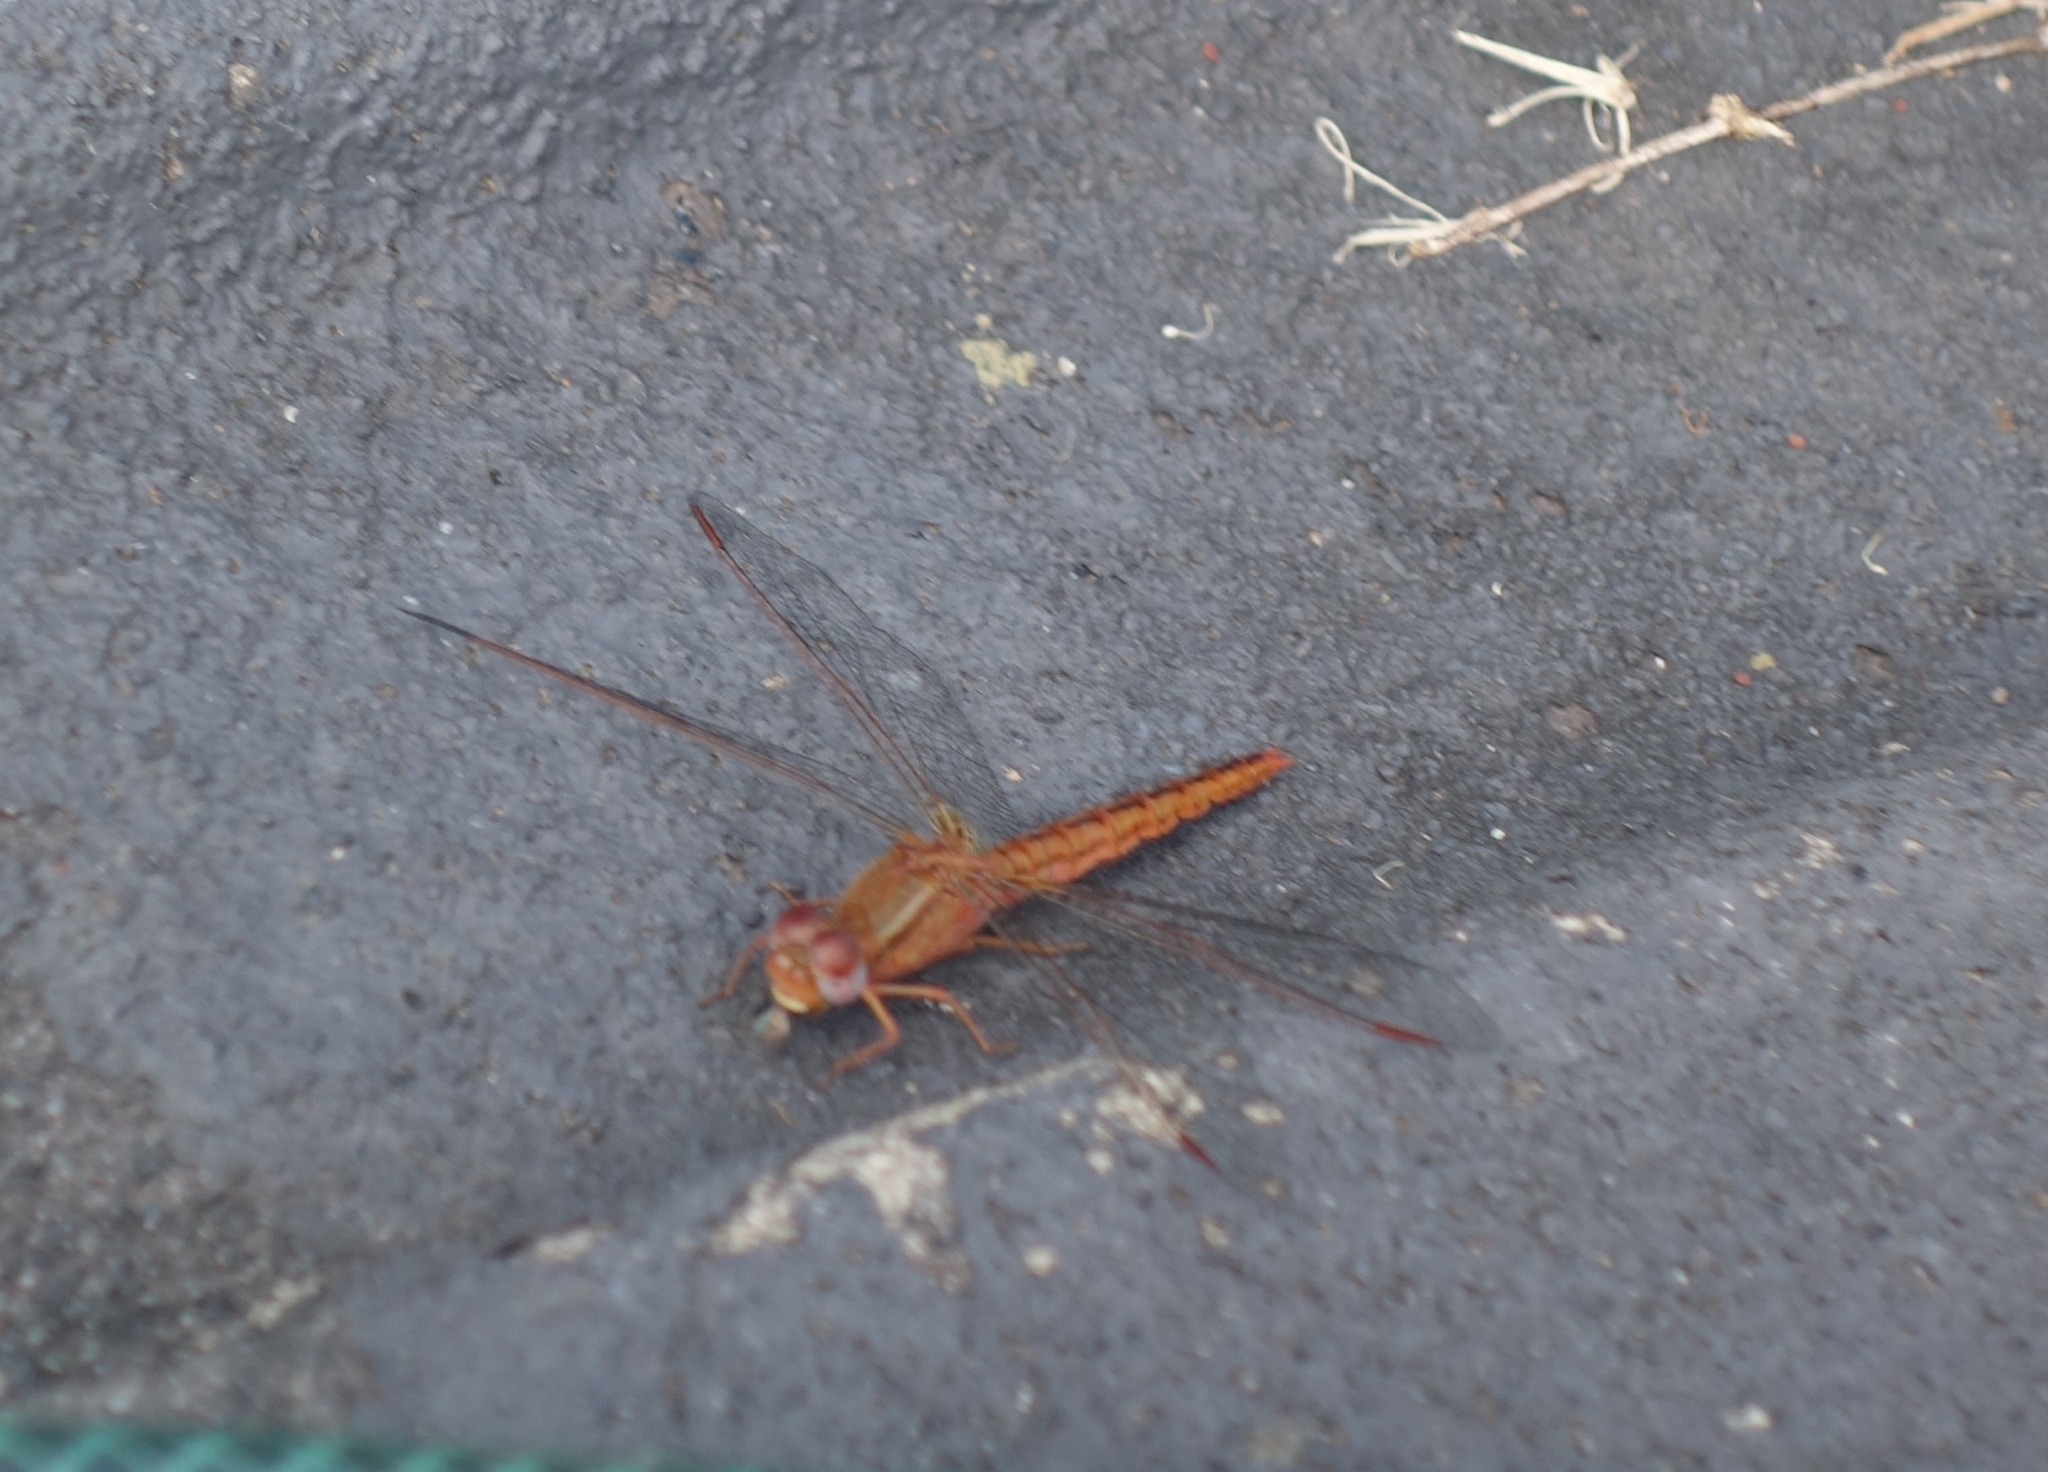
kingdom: Animalia
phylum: Arthropoda
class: Insecta
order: Odonata
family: Libellulidae
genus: Crocothemis
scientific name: Crocothemis sanguinolenta
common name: Little scarlet
